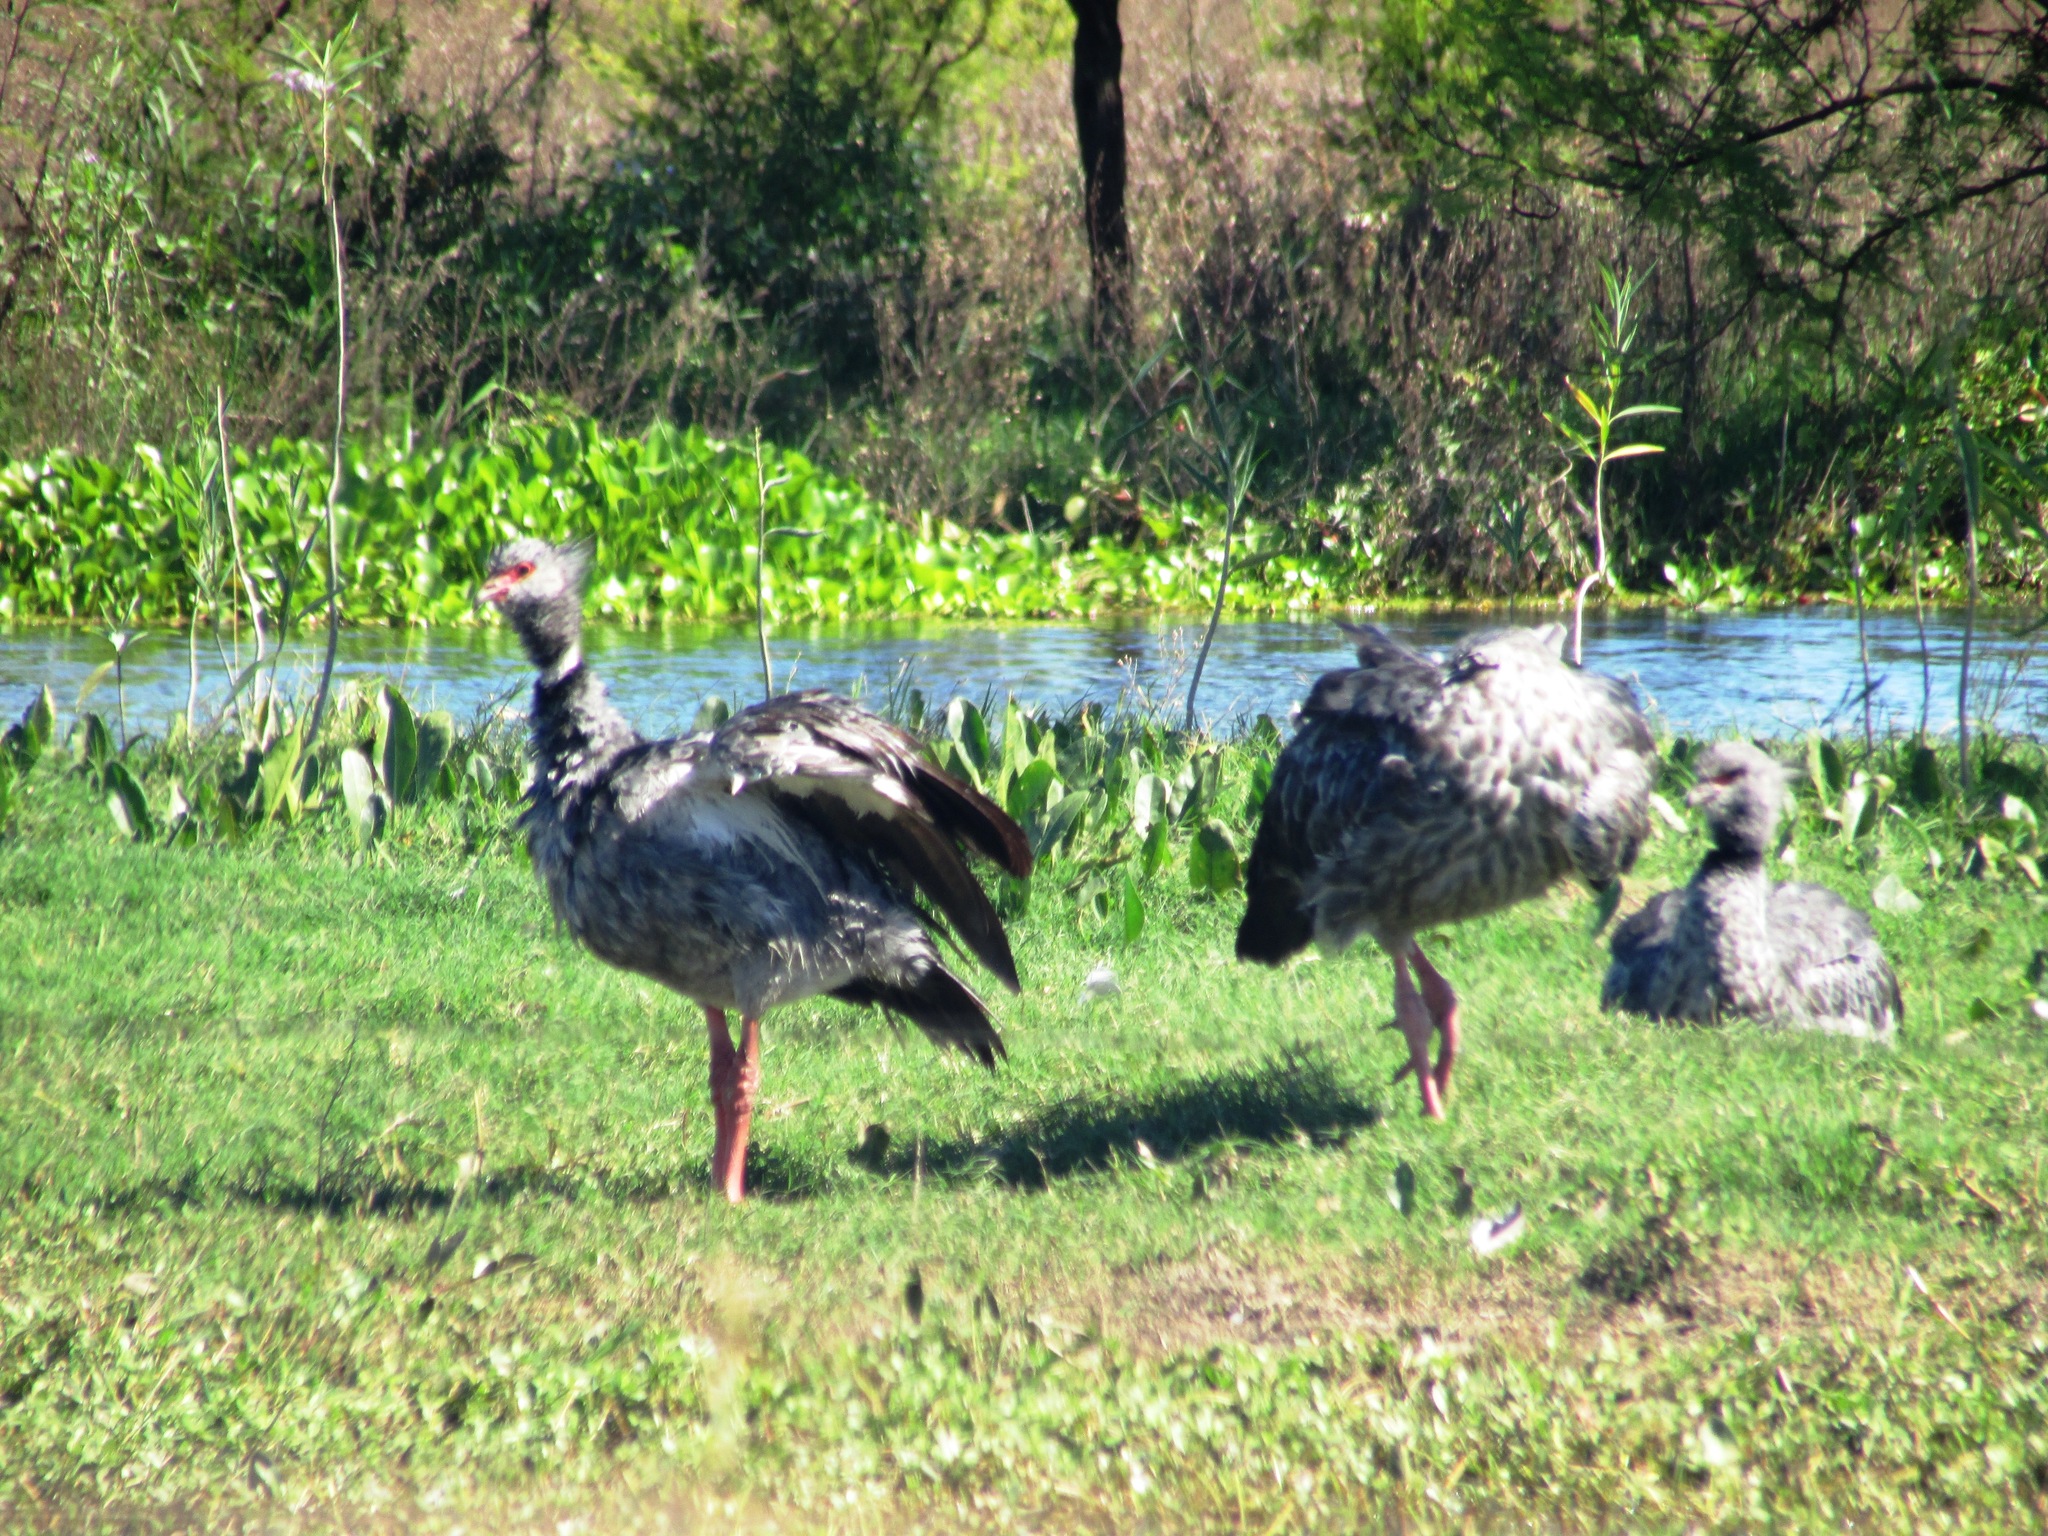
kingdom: Animalia
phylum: Chordata
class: Aves
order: Anseriformes
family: Anhimidae
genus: Chauna
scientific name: Chauna torquata
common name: Southern screamer
